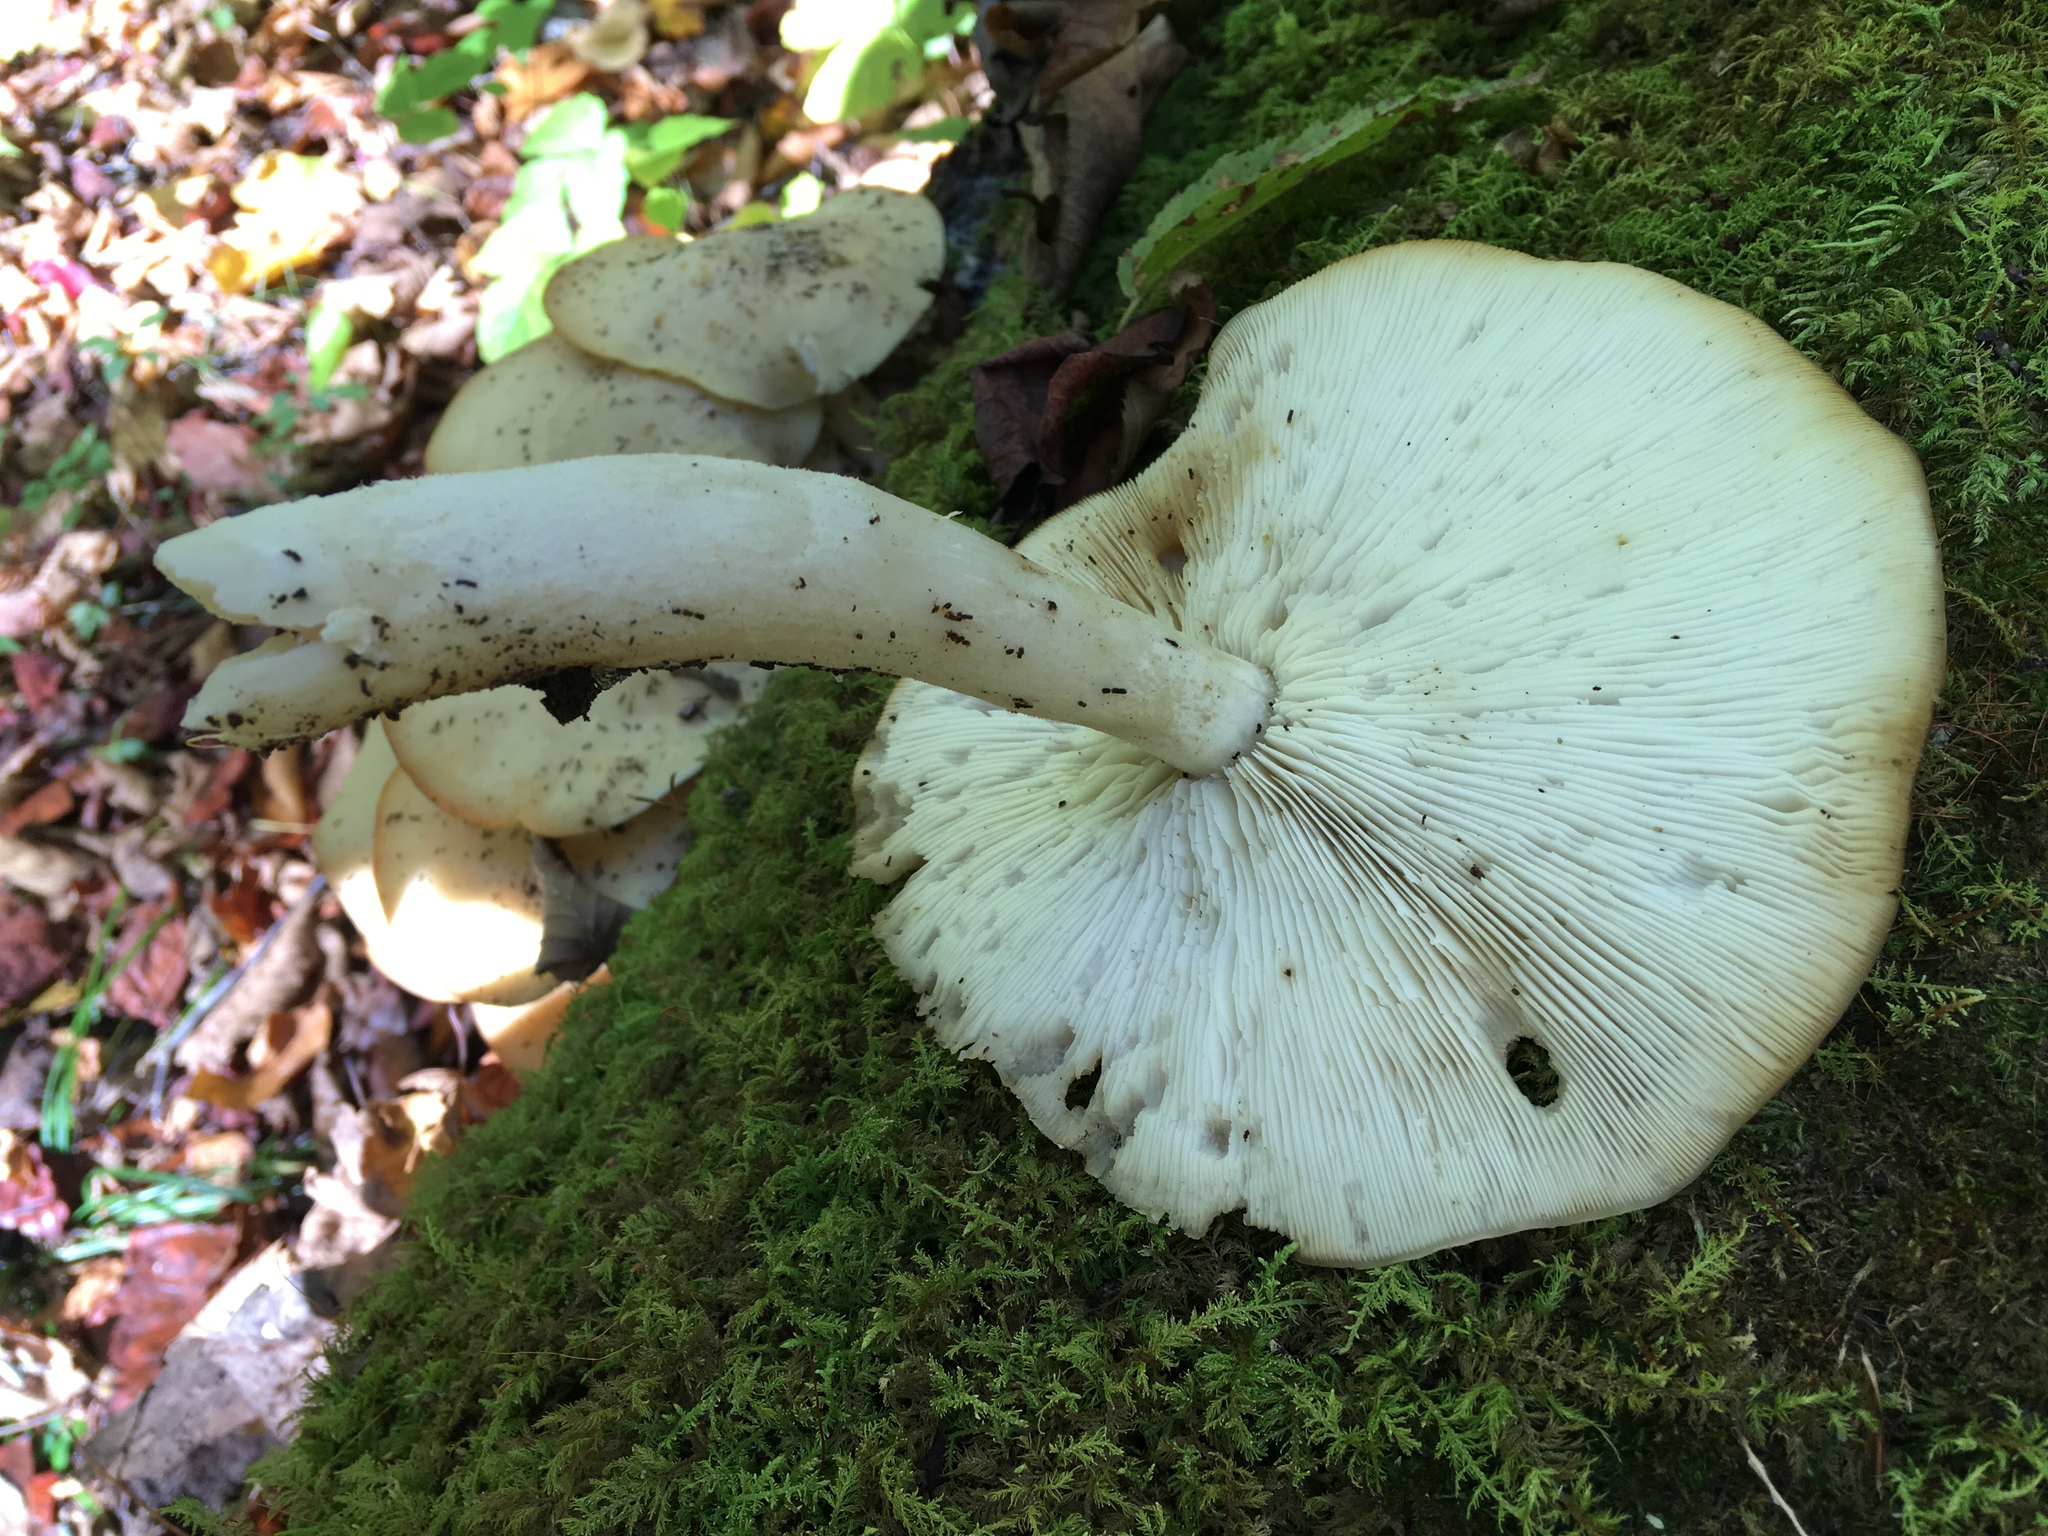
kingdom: Fungi
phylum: Basidiomycota
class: Agaricomycetes
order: Agaricales
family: Lyophyllaceae
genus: Hypsizygus
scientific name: Hypsizygus tessulatus
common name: Beech mushroom
